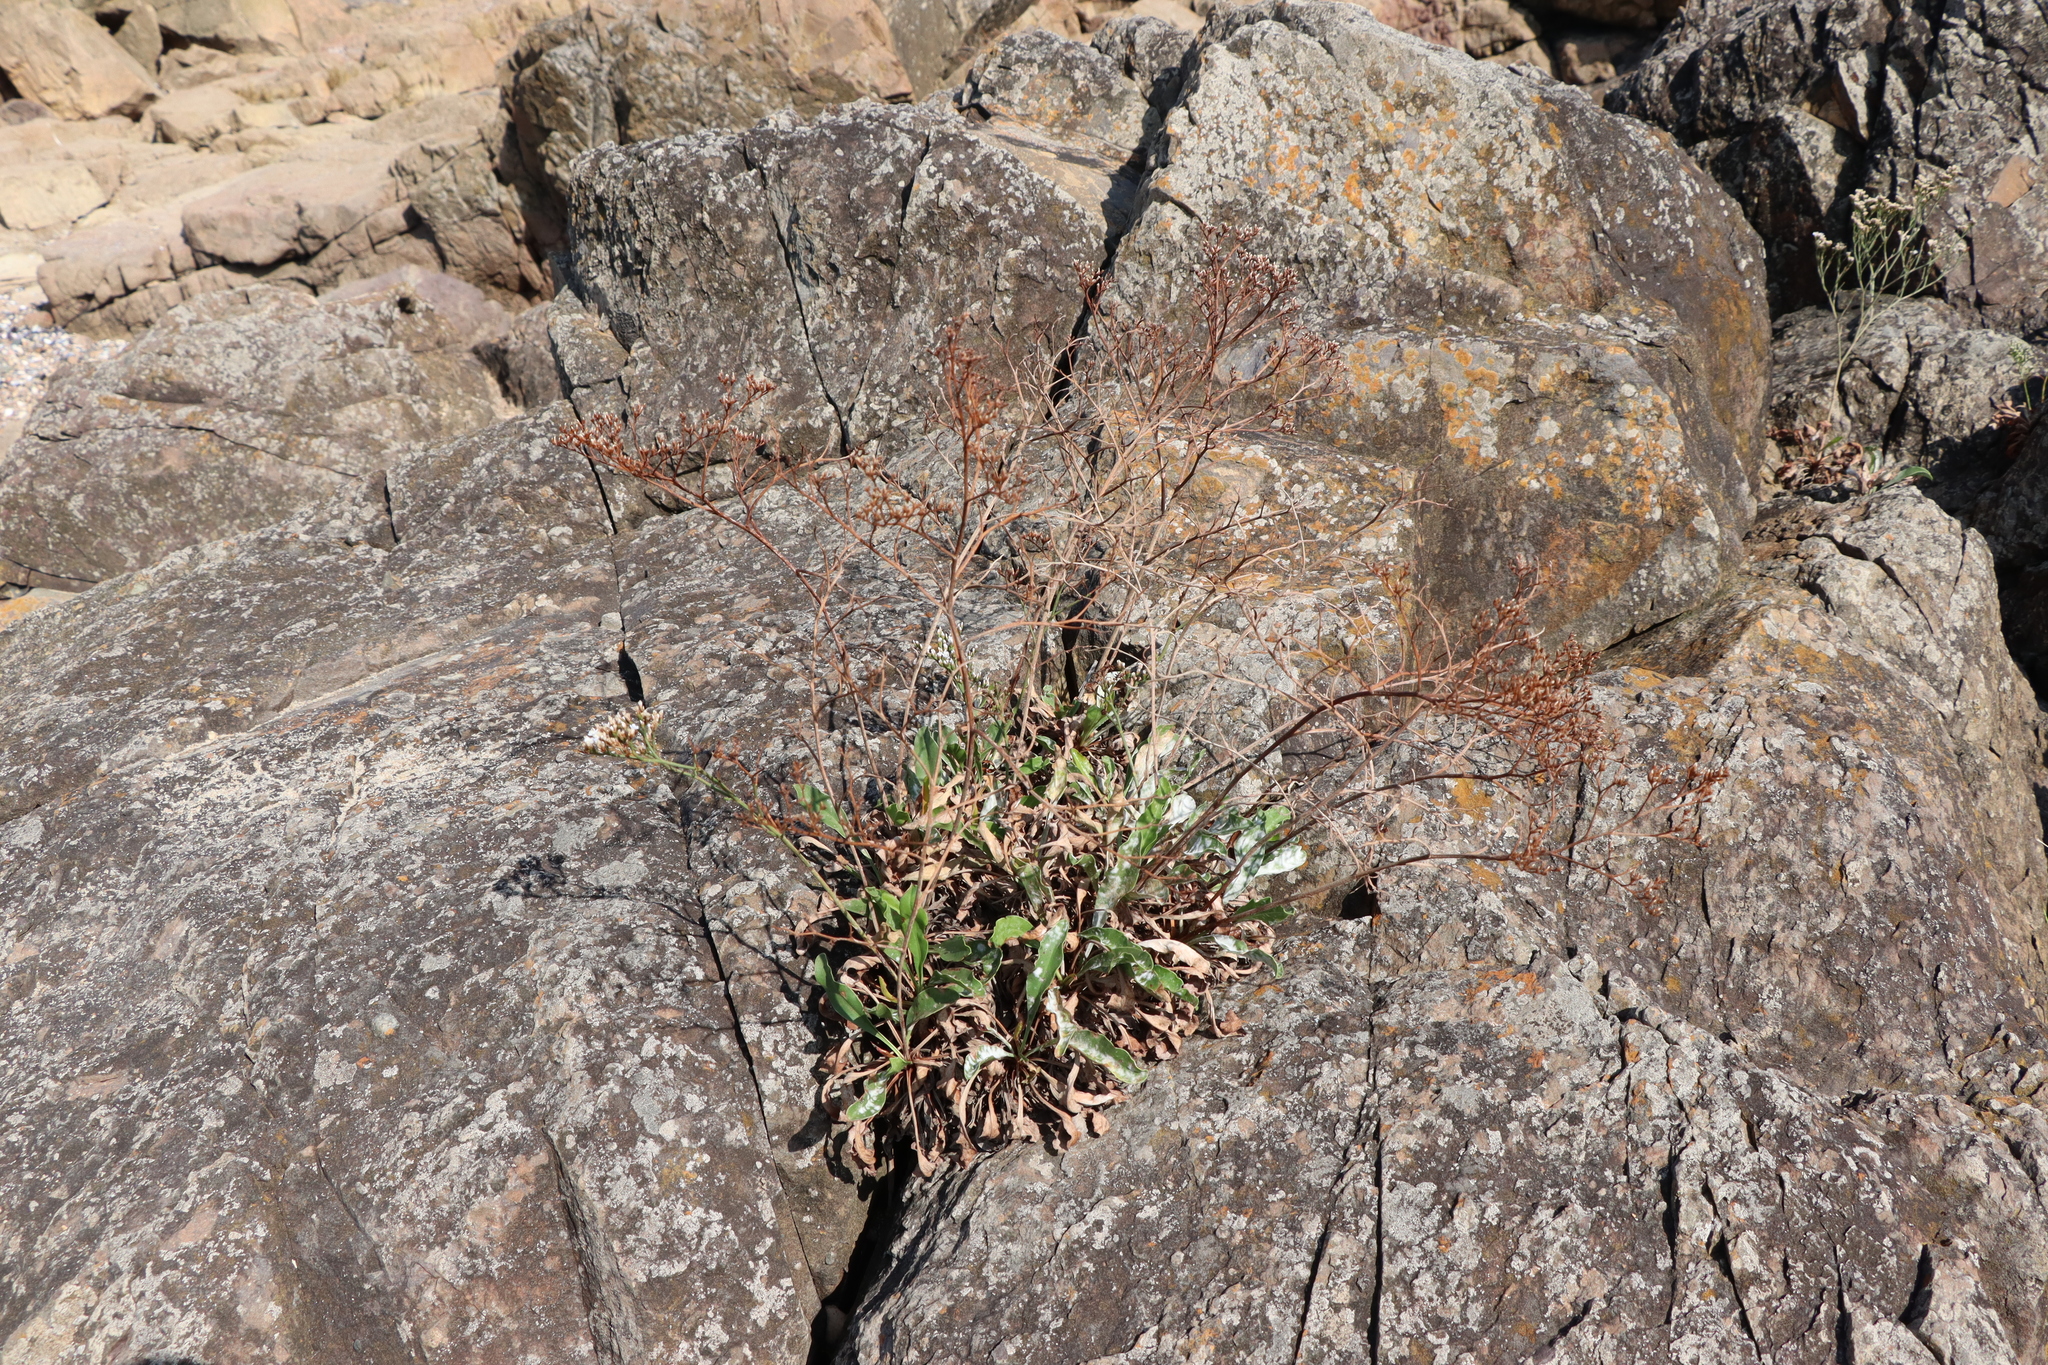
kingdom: Plantae
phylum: Tracheophyta
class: Magnoliopsida
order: Caryophyllales
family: Plumbaginaceae
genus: Limonium
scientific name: Limonium brasiliense
